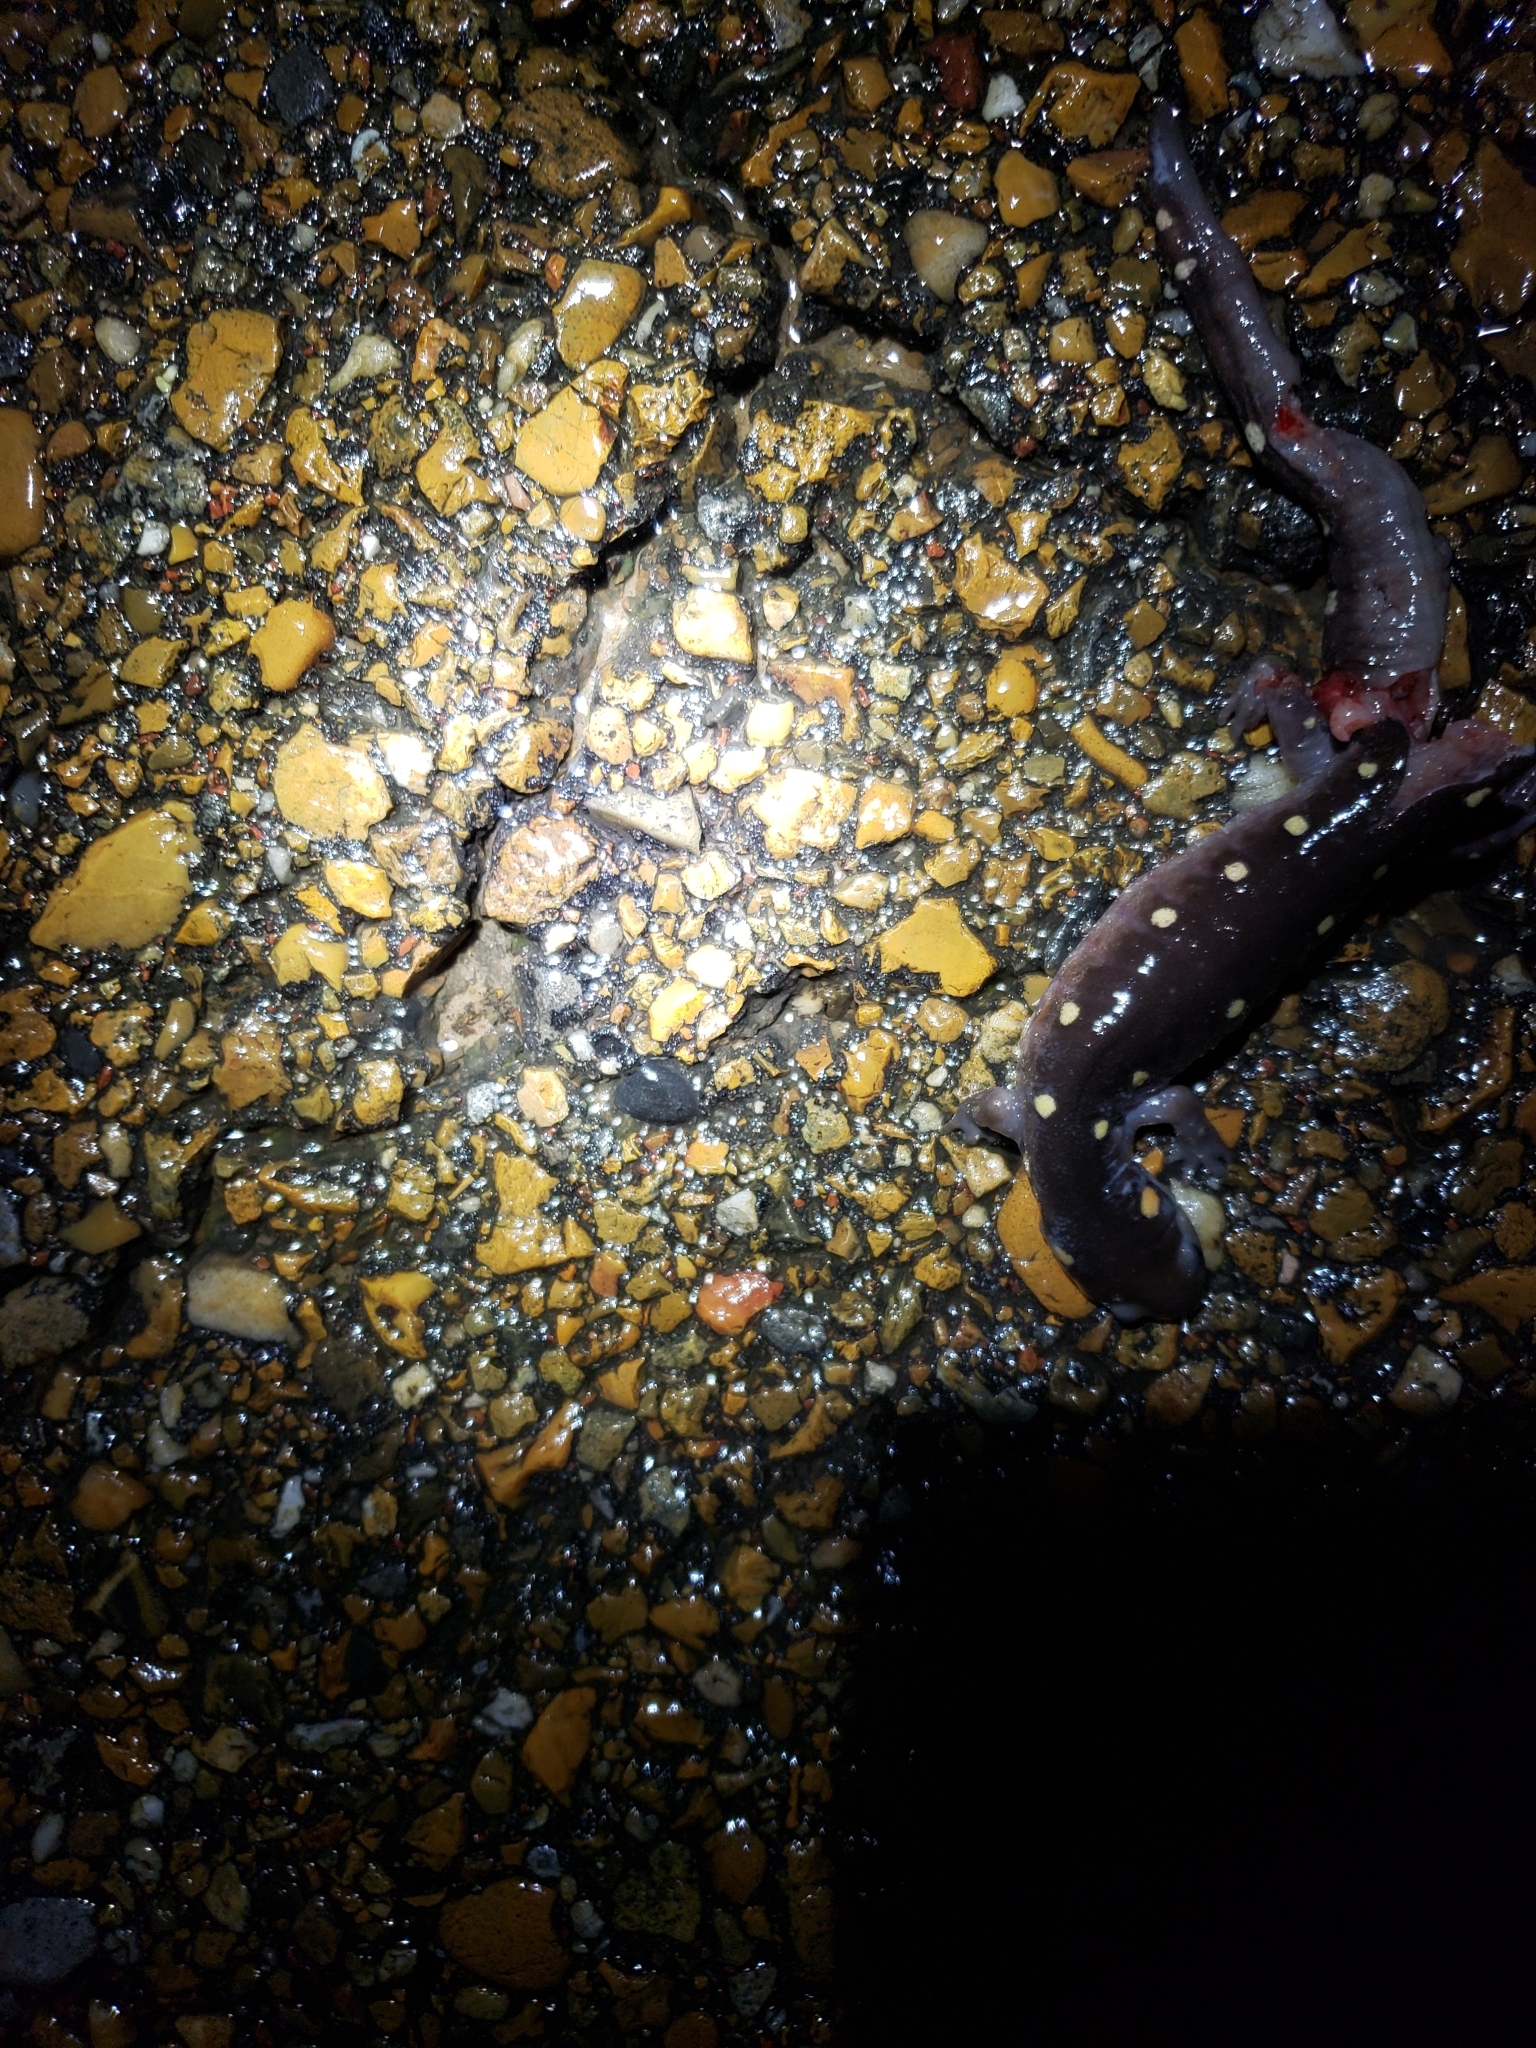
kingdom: Animalia
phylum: Chordata
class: Amphibia
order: Caudata
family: Ambystomatidae
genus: Ambystoma
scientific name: Ambystoma maculatum
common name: Spotted salamander
